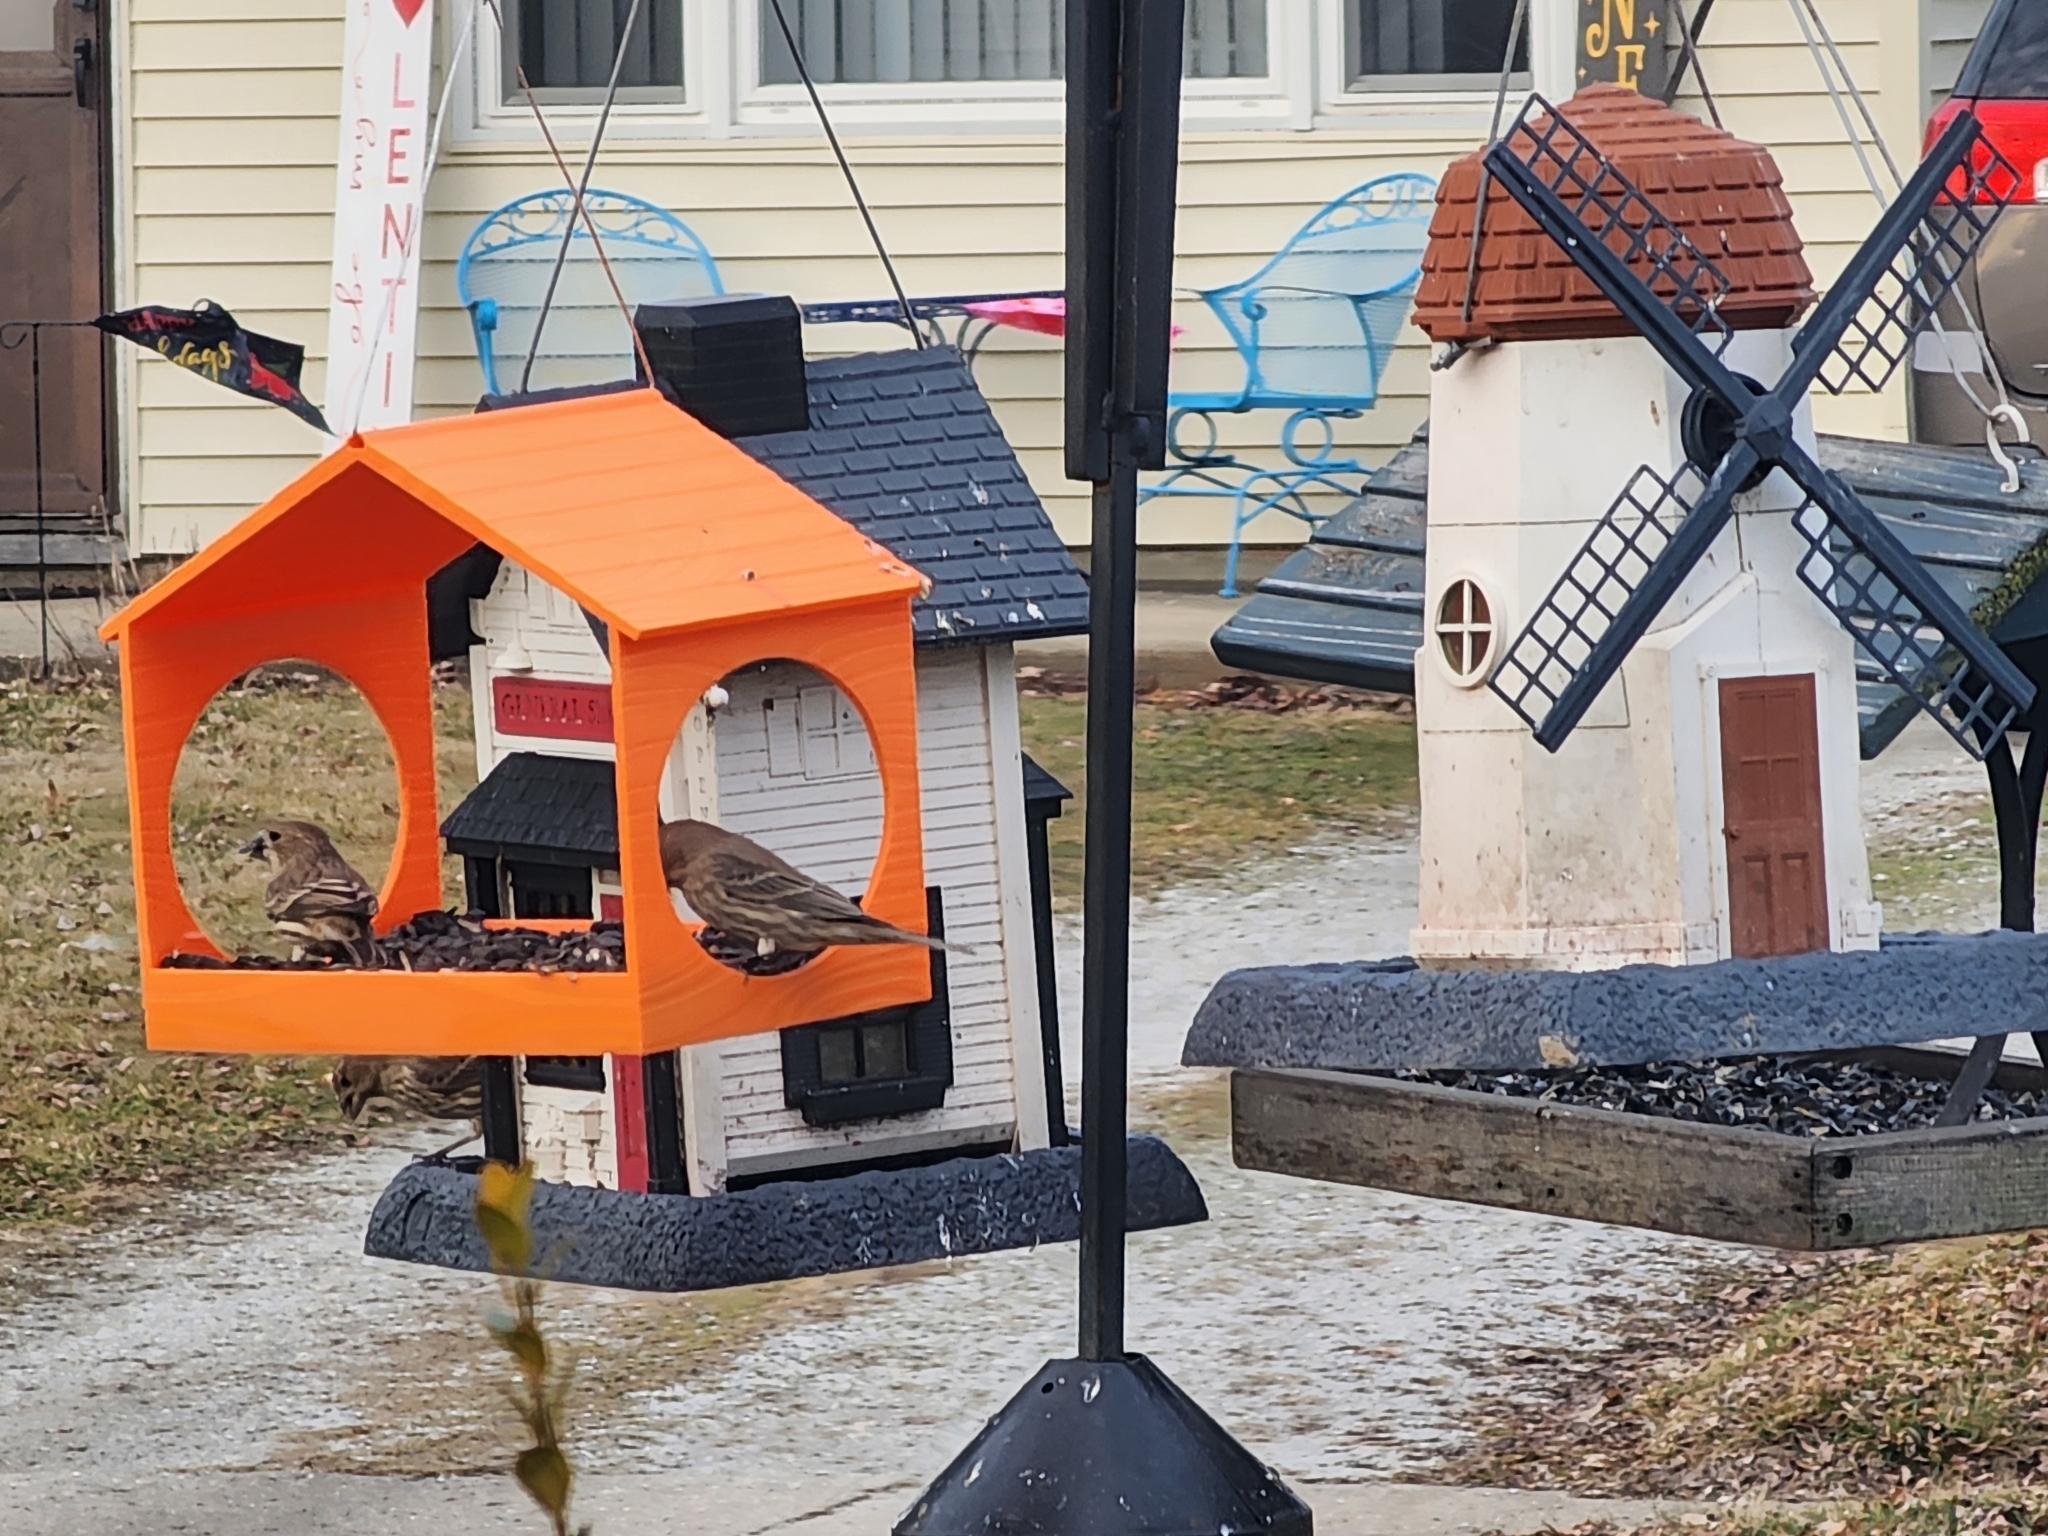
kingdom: Animalia
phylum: Chordata
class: Aves
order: Passeriformes
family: Fringillidae
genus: Haemorhous
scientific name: Haemorhous mexicanus
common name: House finch
